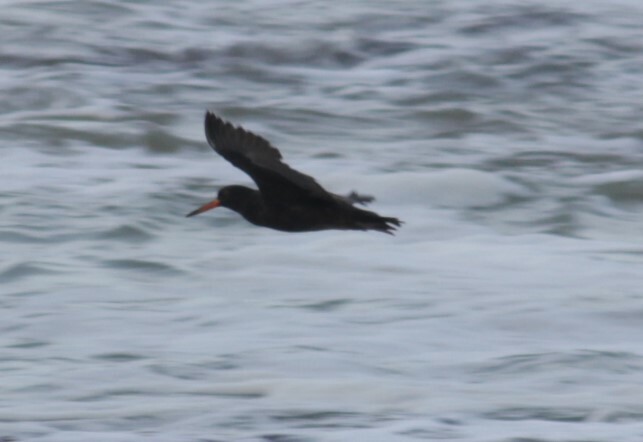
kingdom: Animalia
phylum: Chordata
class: Aves
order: Charadriiformes
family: Haematopodidae
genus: Haematopus
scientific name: Haematopus moquini
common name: African oystercatcher
